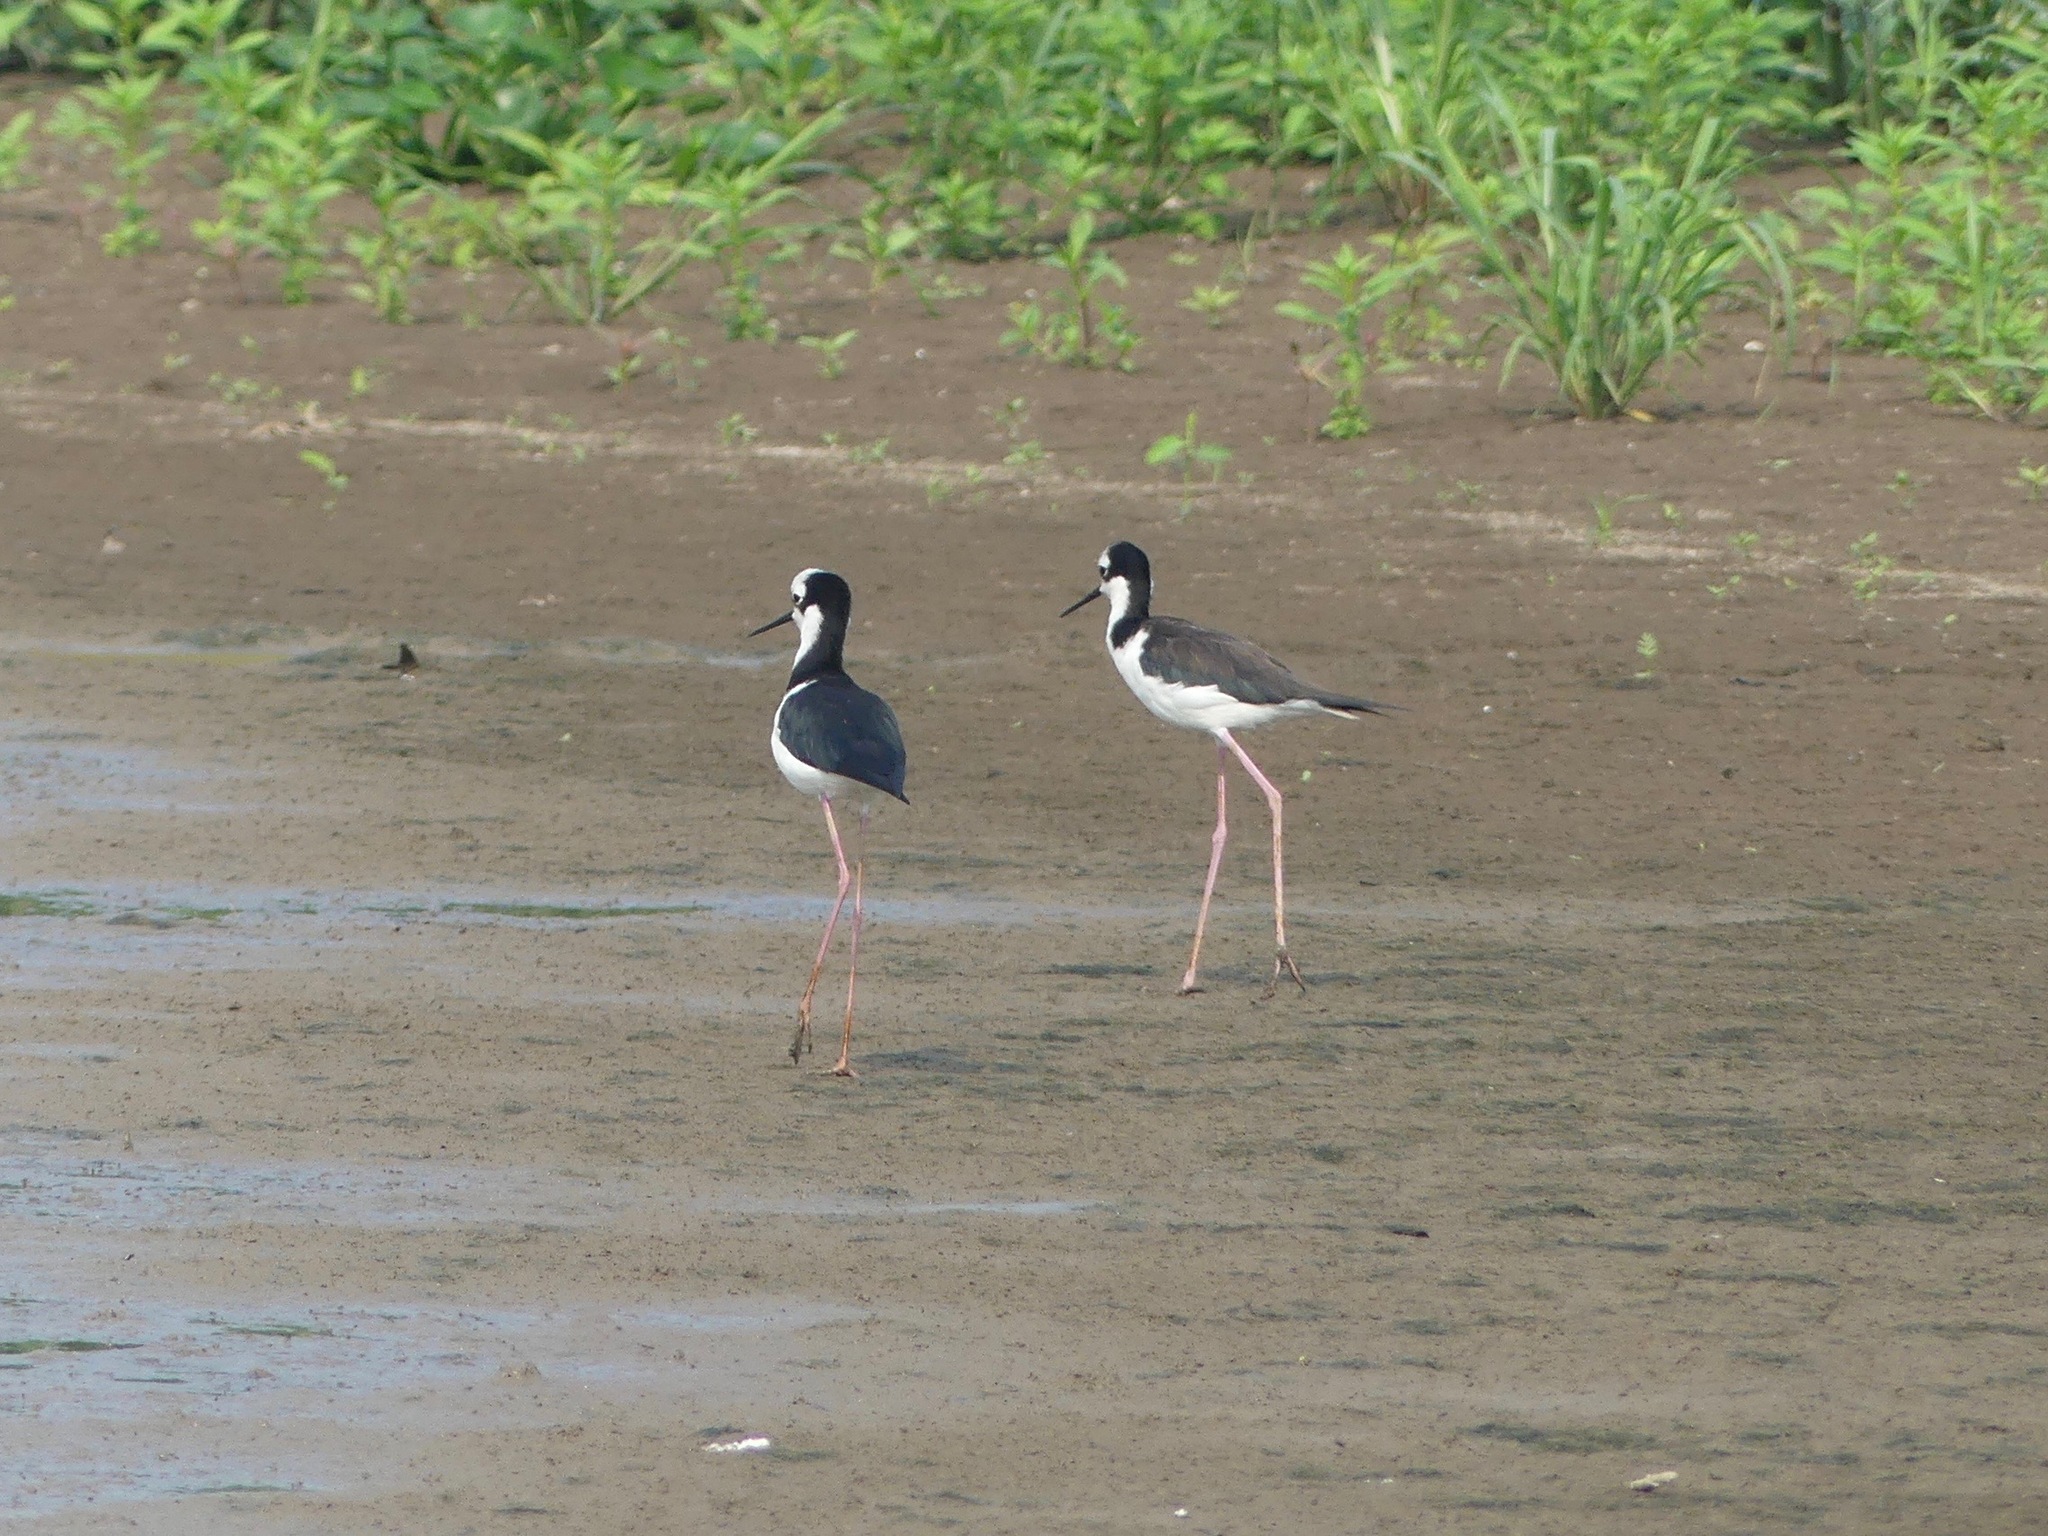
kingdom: Animalia
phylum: Chordata
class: Aves
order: Charadriiformes
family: Recurvirostridae
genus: Himantopus
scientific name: Himantopus mexicanus
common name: Black-necked stilt
